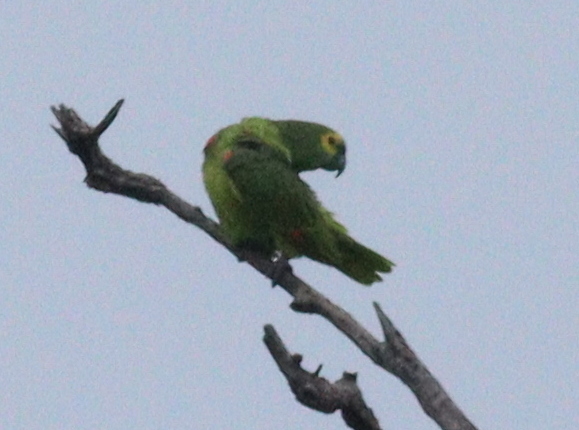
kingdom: Animalia
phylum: Chordata
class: Aves
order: Psittaciformes
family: Psittacidae
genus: Amazona
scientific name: Amazona aestiva
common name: Turquoise-fronted amazon
